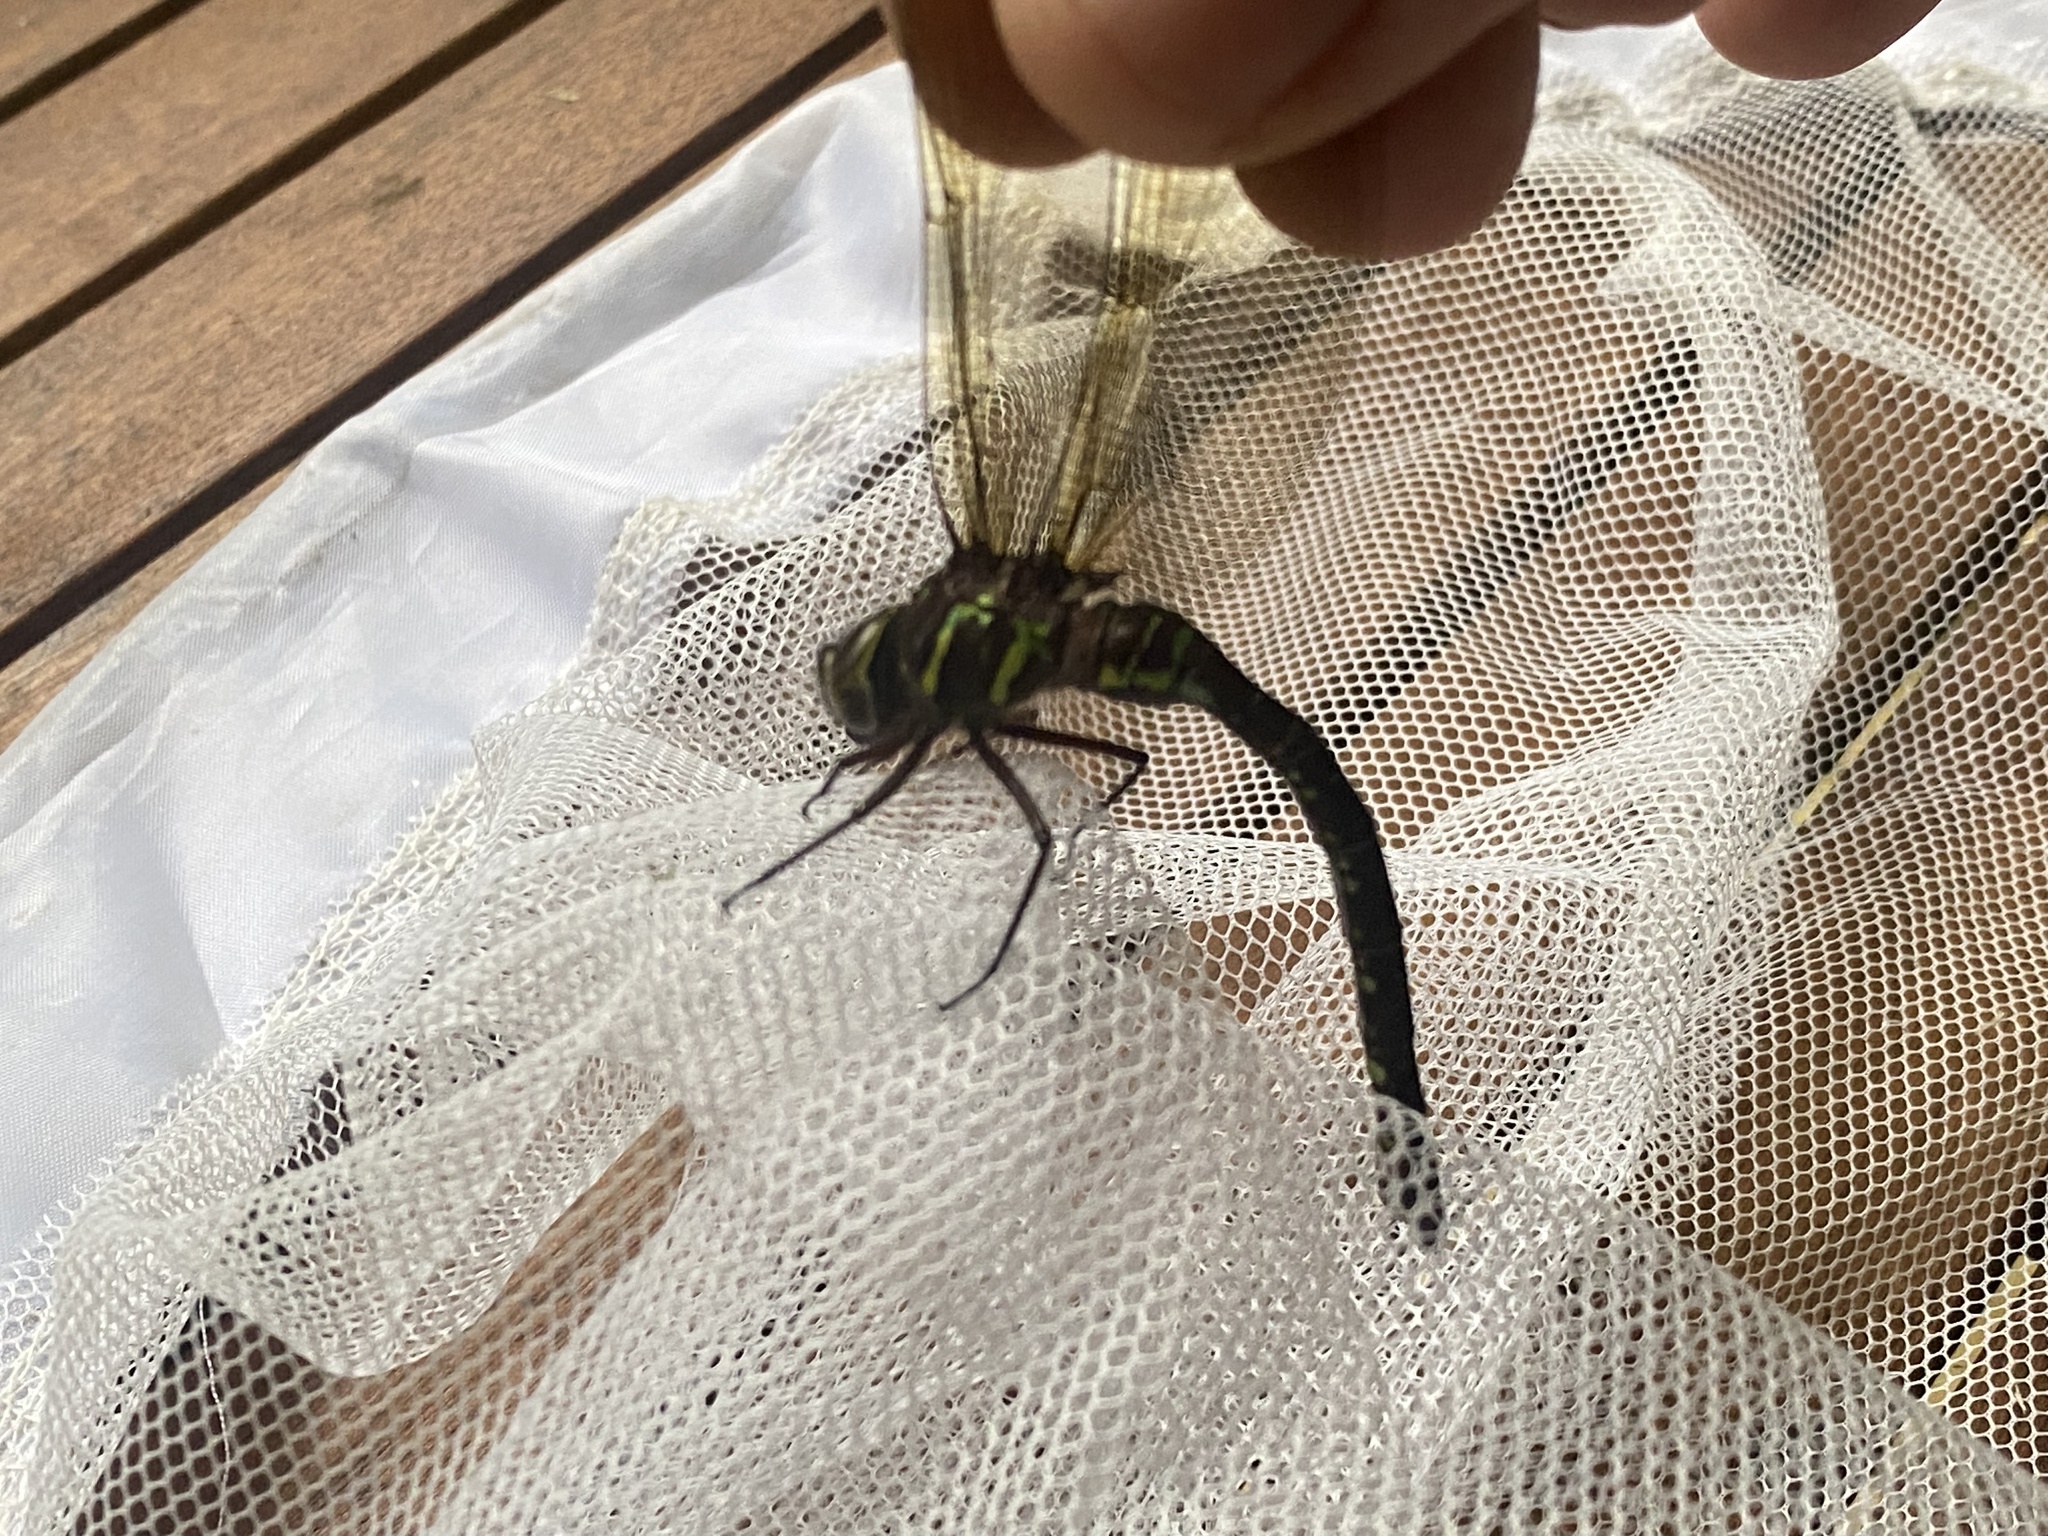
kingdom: Animalia
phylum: Arthropoda
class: Insecta
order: Odonata
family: Aeshnidae
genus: Aeshna
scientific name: Aeshna umbrosa
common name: Shadow darner
